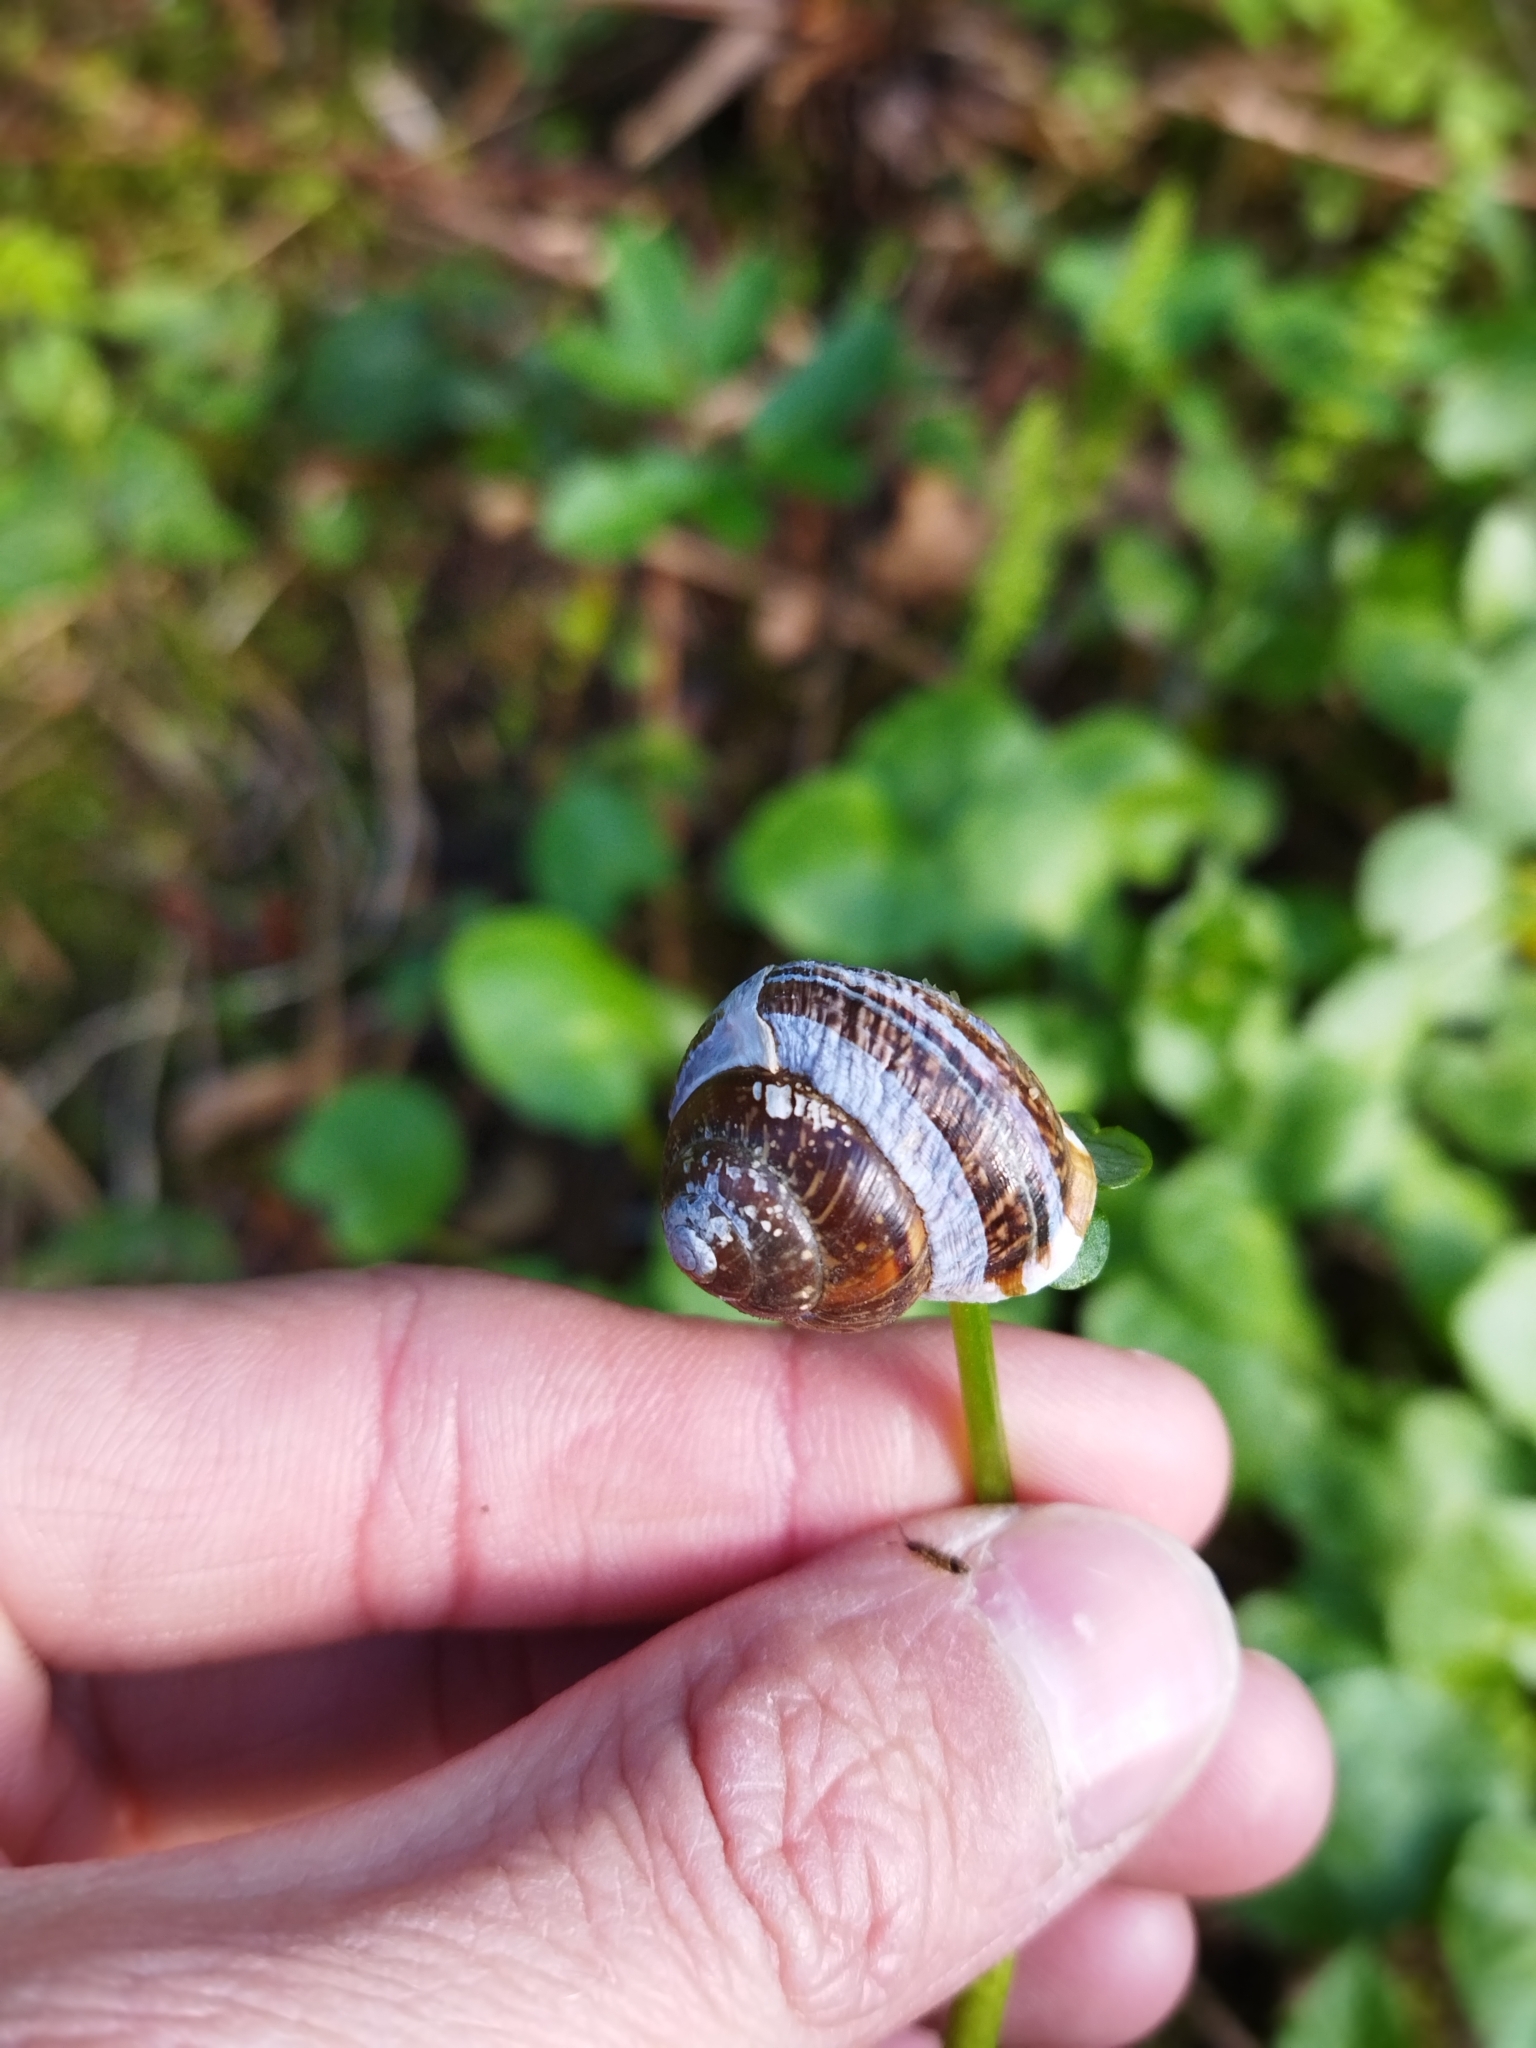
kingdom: Animalia
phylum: Mollusca
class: Gastropoda
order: Stylommatophora
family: Helicidae
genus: Arianta
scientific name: Arianta arbustorum
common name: Copse snail
